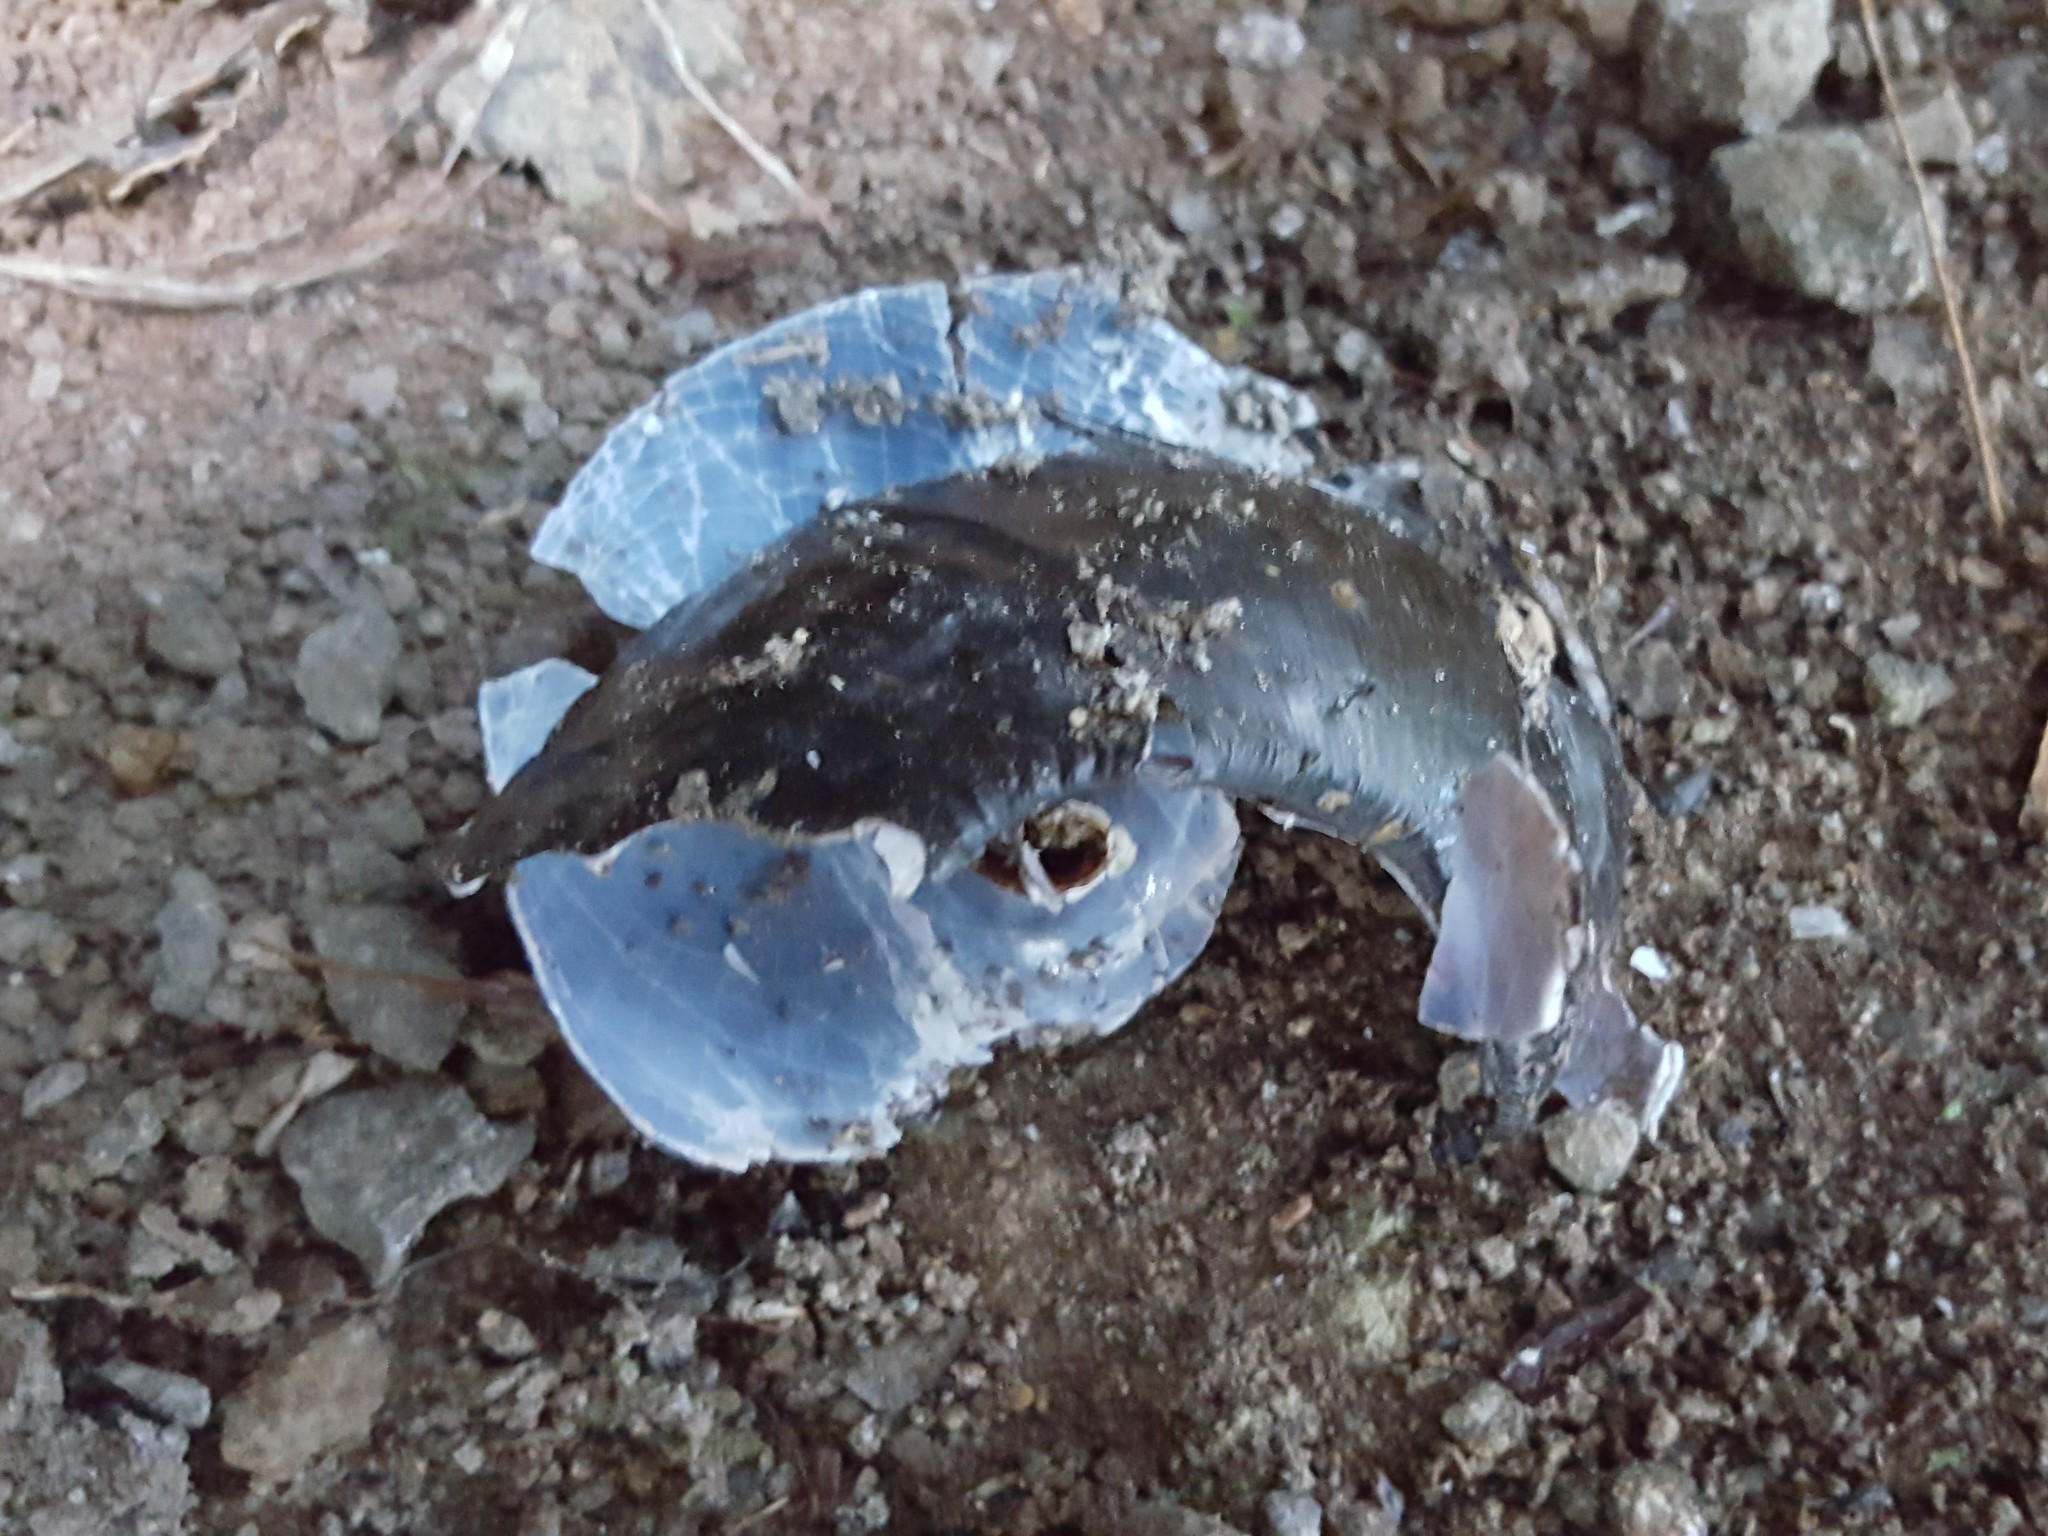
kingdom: Animalia
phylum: Mollusca
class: Gastropoda
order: Stylommatophora
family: Rhytididae
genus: Paryphanta
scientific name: Paryphanta busbyi
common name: Kauri snail
